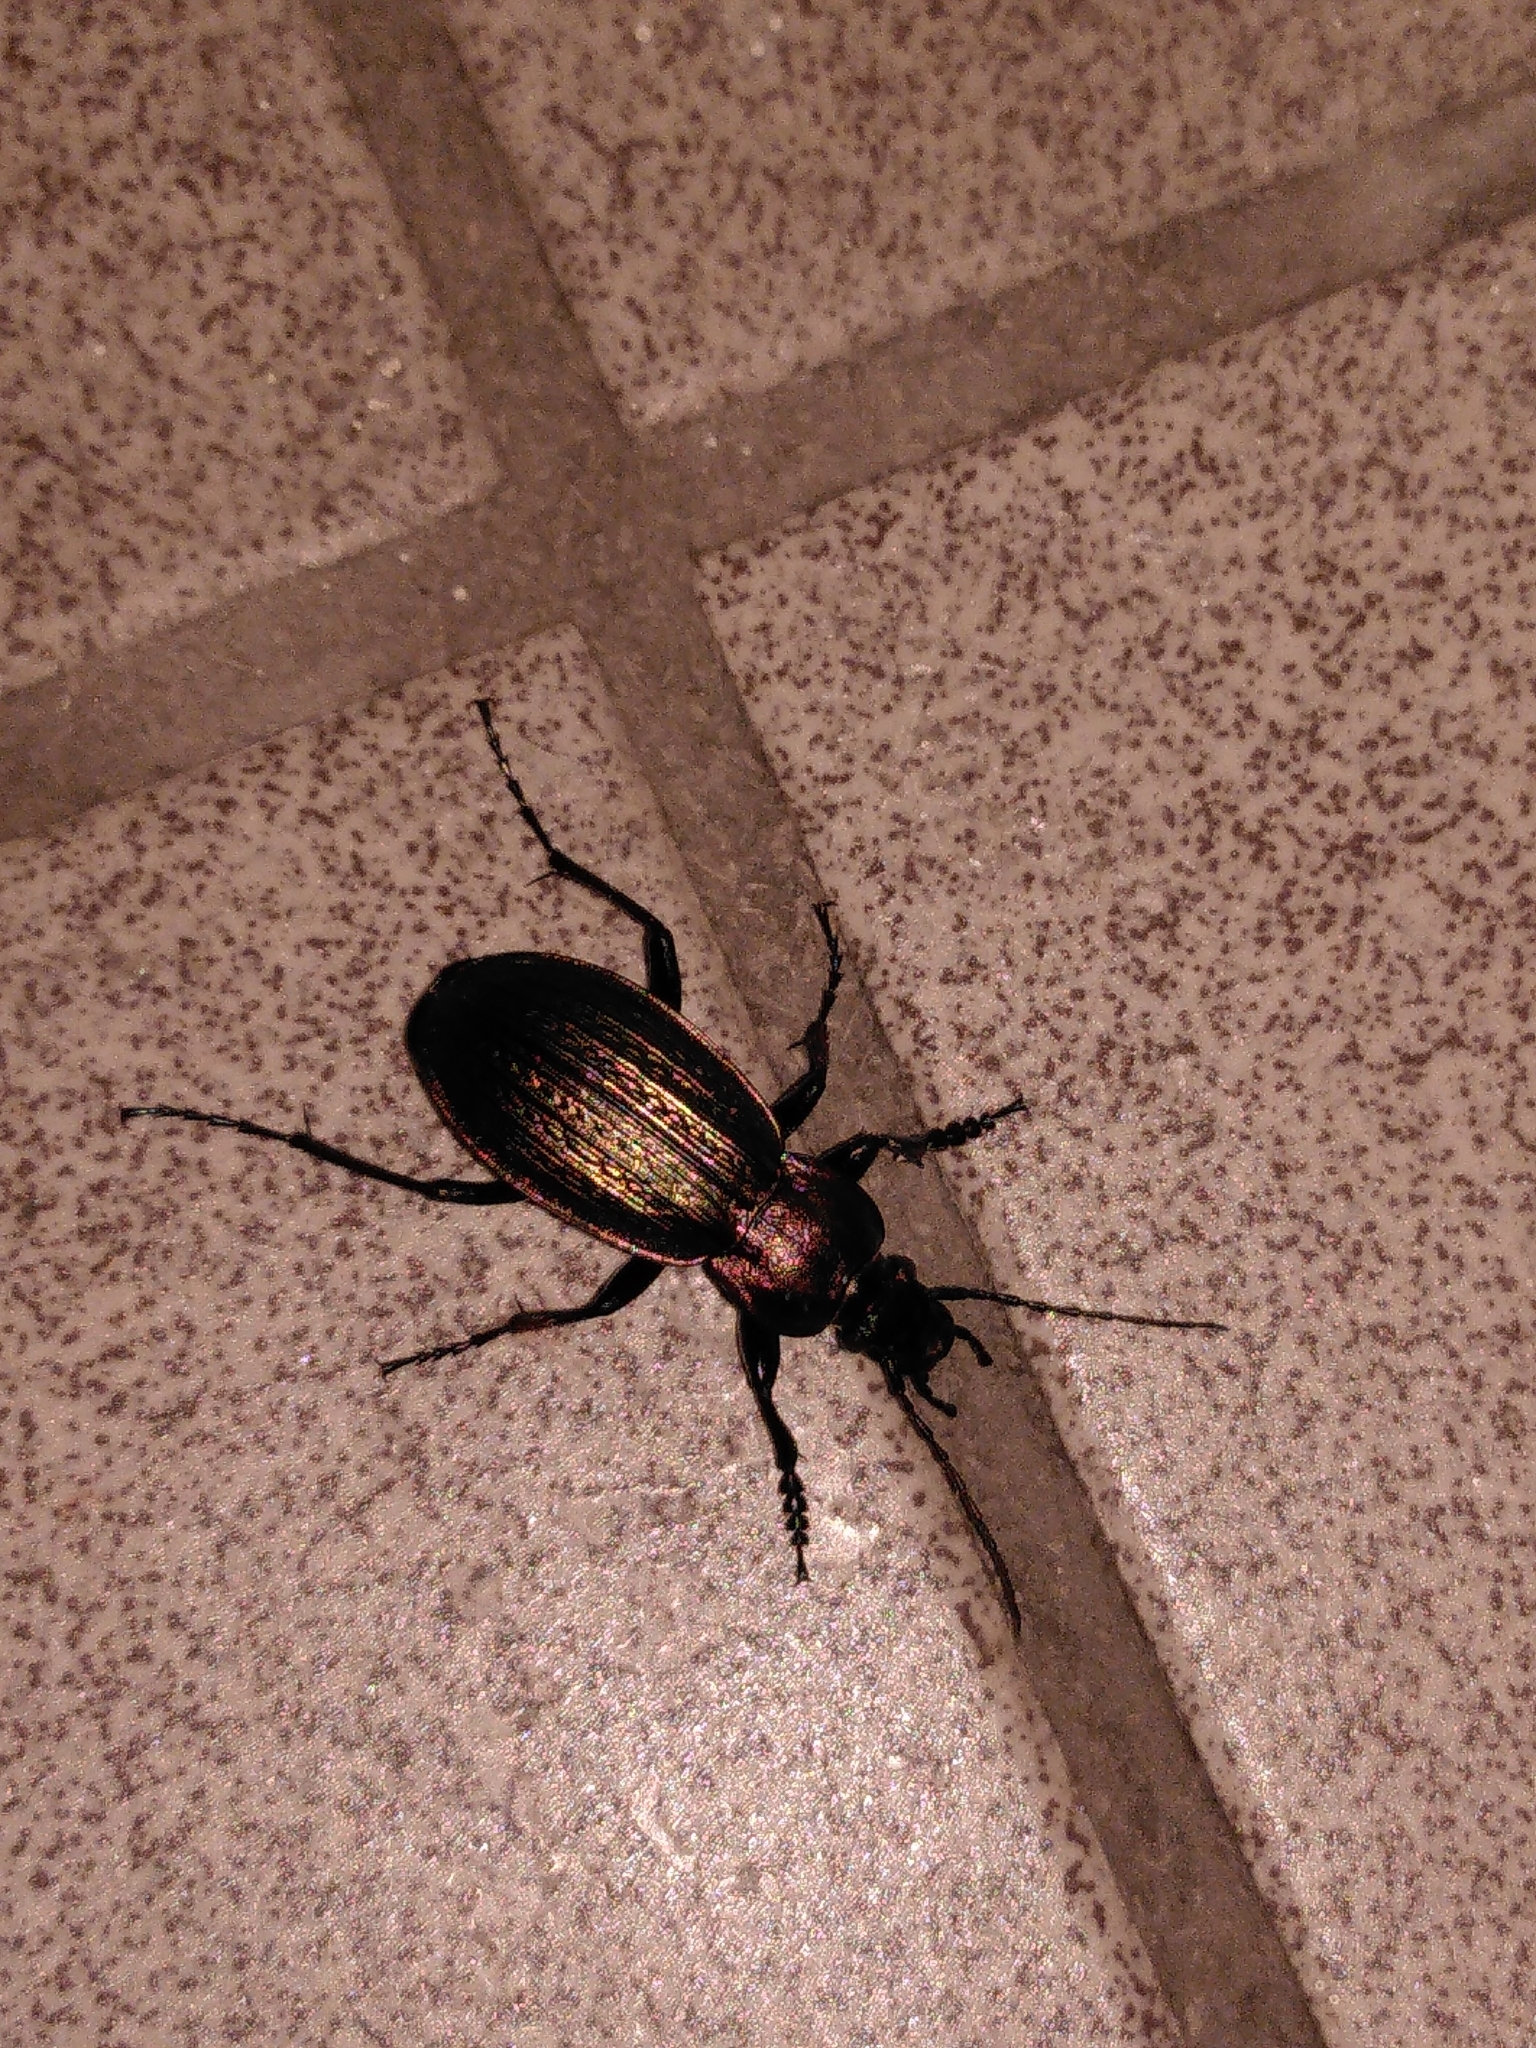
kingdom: Animalia
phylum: Arthropoda
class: Insecta
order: Coleoptera
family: Carabidae
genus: Carabus
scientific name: Carabus monilis
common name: Necklace ground beetle
